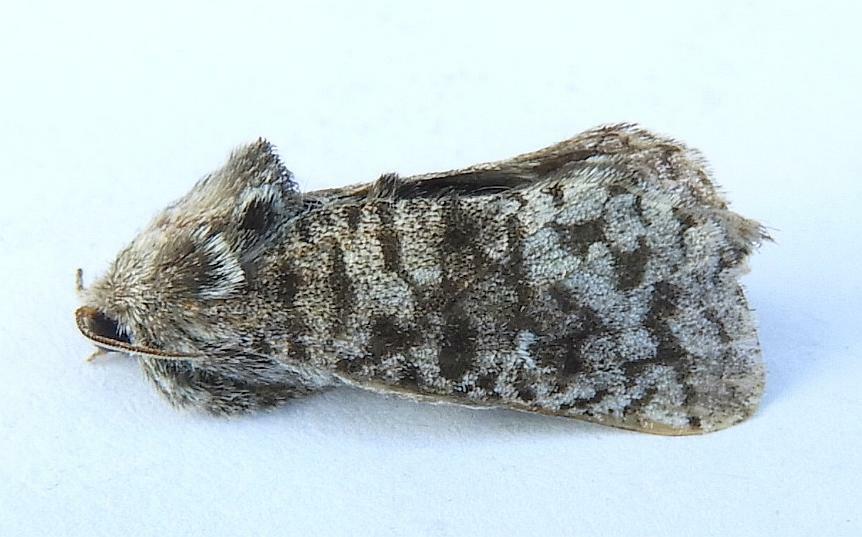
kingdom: Animalia
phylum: Arthropoda
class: Insecta
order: Lepidoptera
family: Cossidae
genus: Givira
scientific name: Givira francesca
